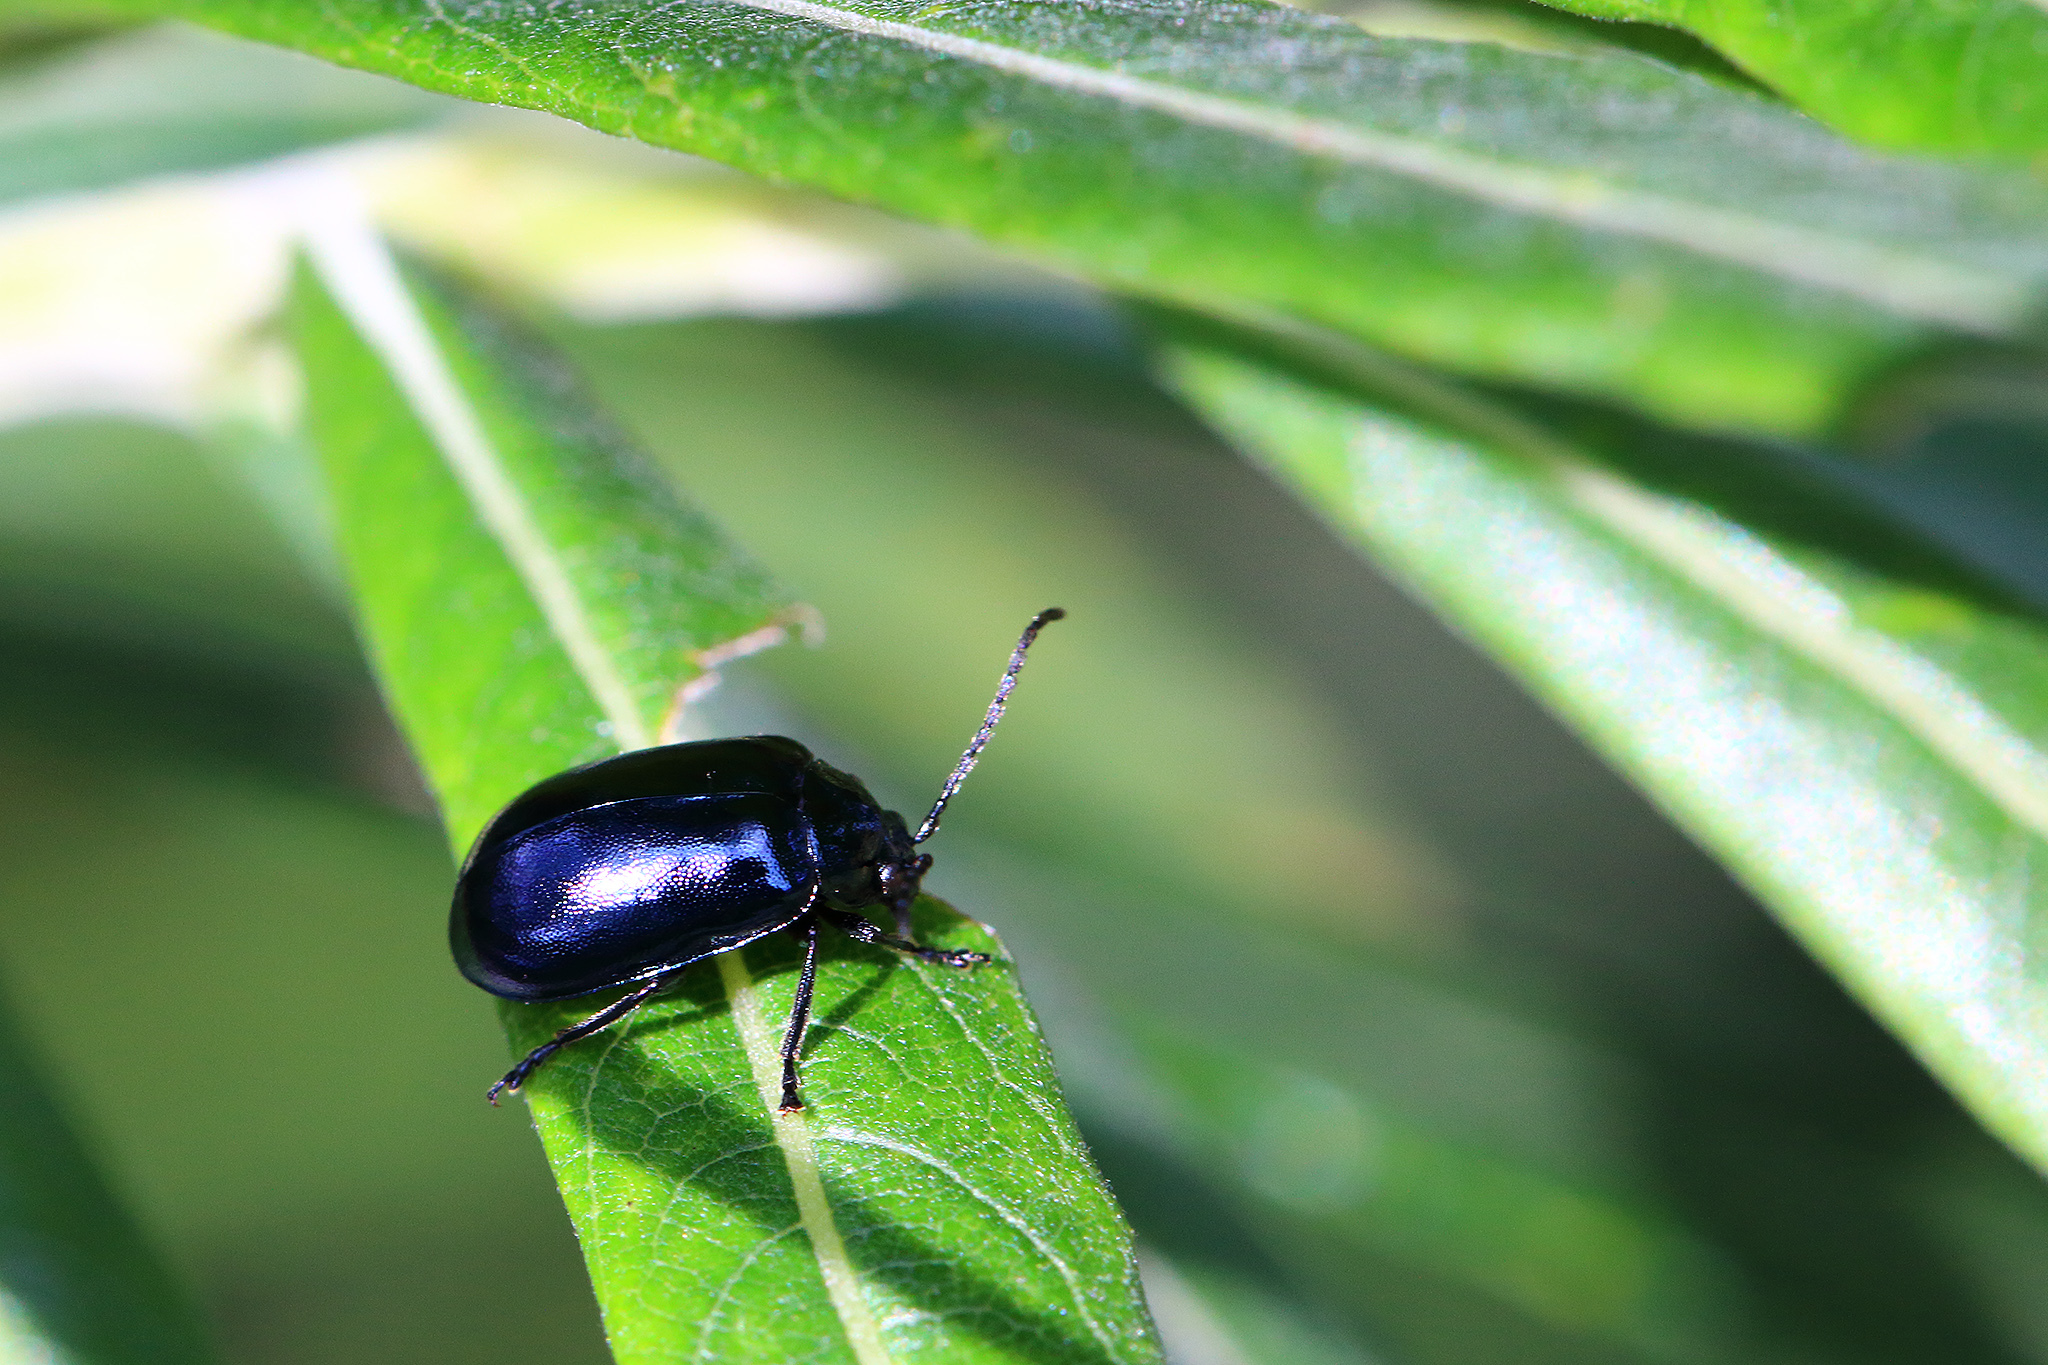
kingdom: Animalia
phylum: Arthropoda
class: Insecta
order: Coleoptera
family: Chrysomelidae
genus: Agelastica
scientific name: Agelastica alni
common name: Alder leaf beetle
